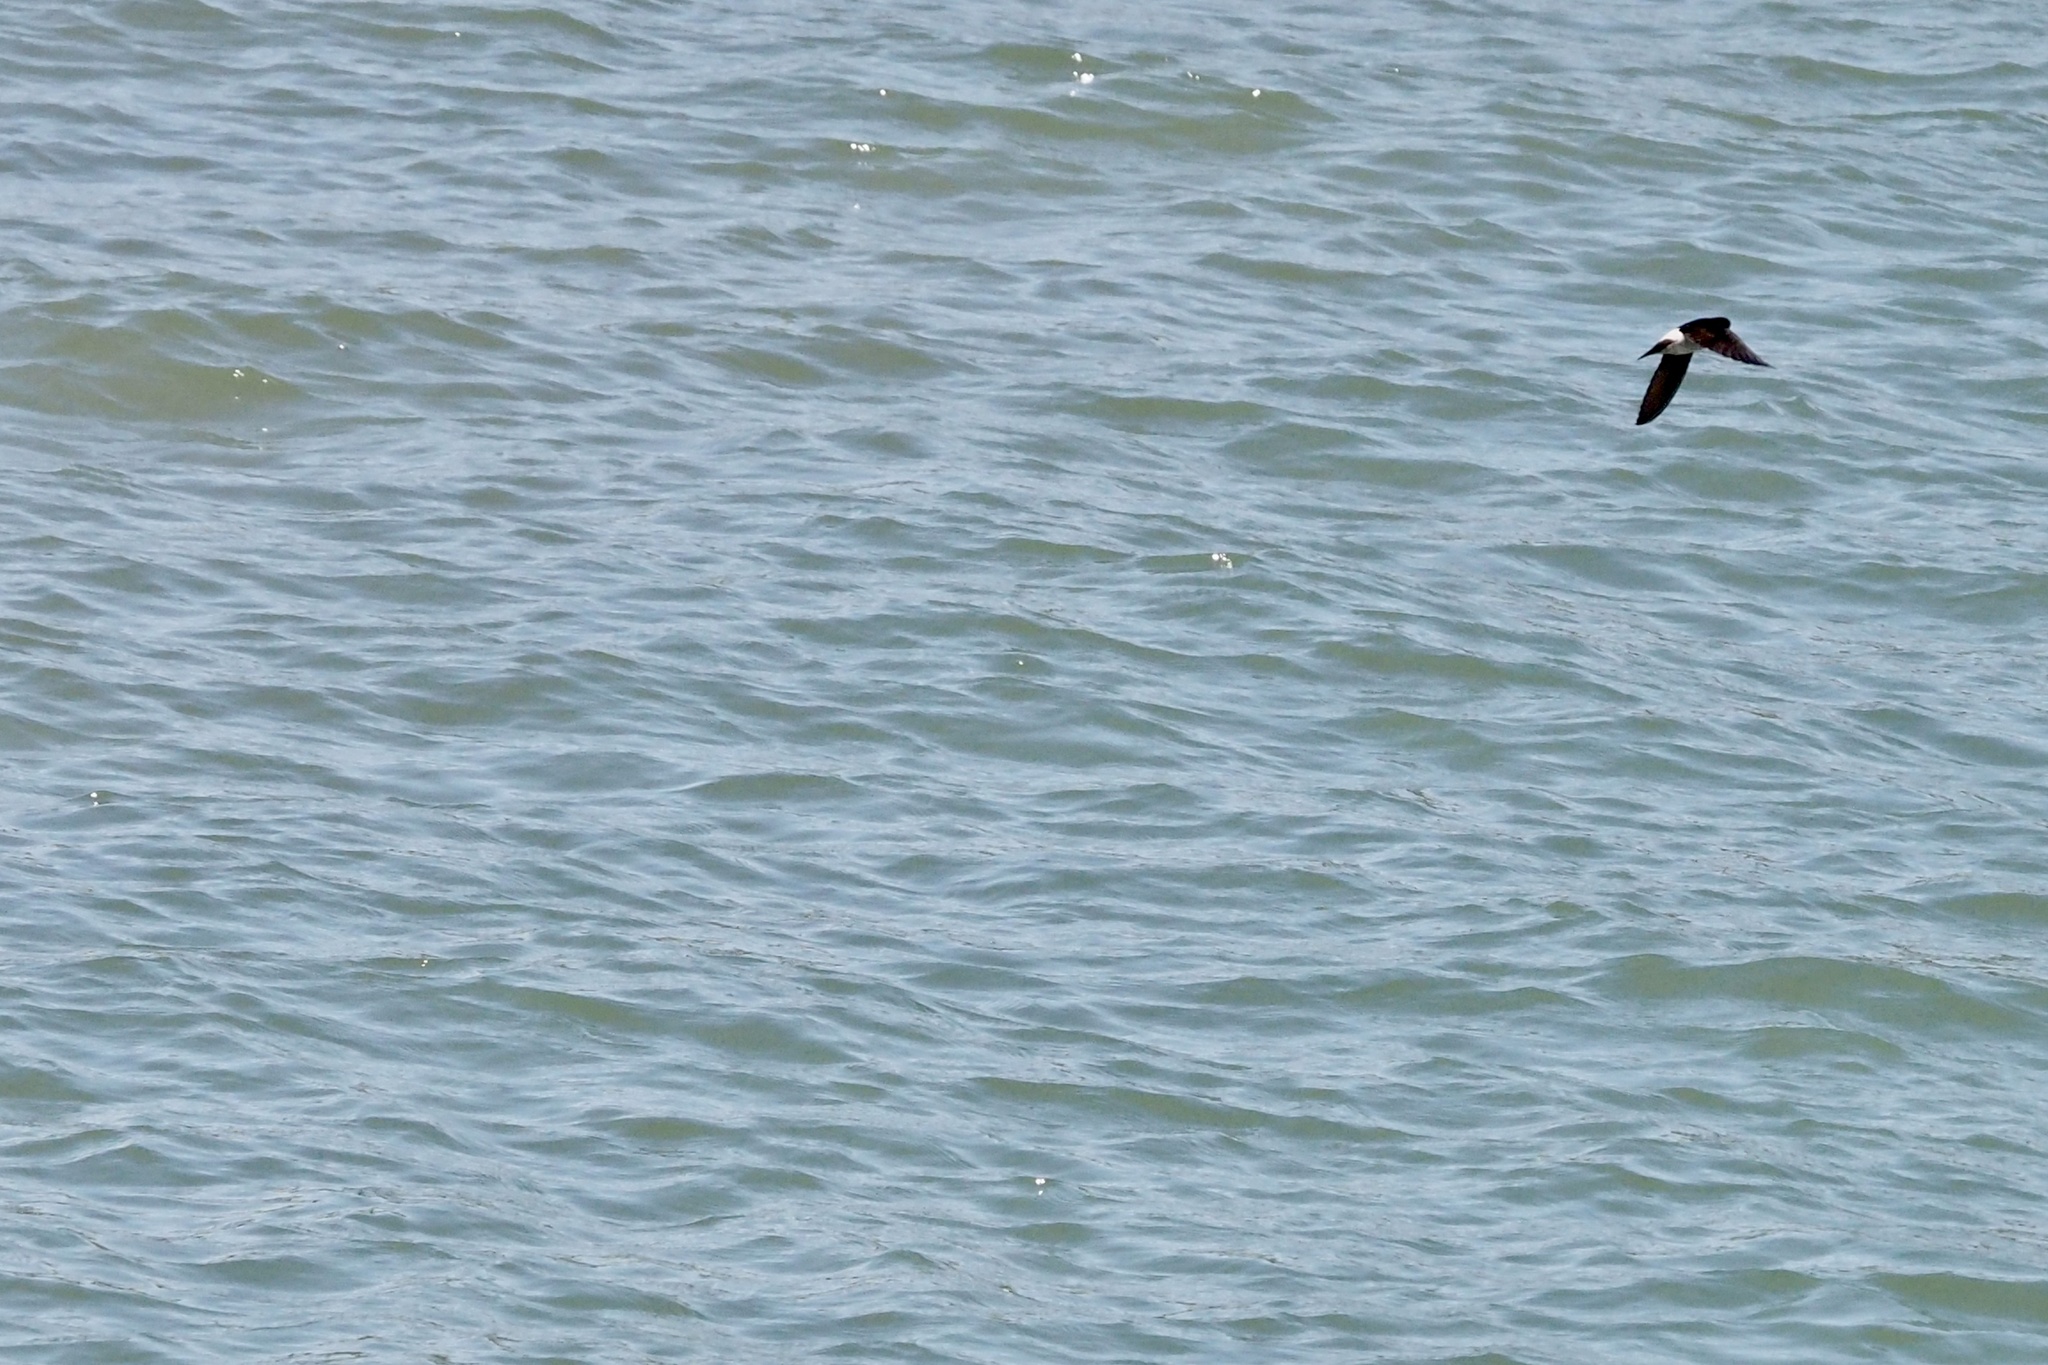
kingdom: Animalia
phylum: Chordata
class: Aves
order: Passeriformes
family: Hirundinidae
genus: Delichon
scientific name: Delichon dasypus
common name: Asian house martin
